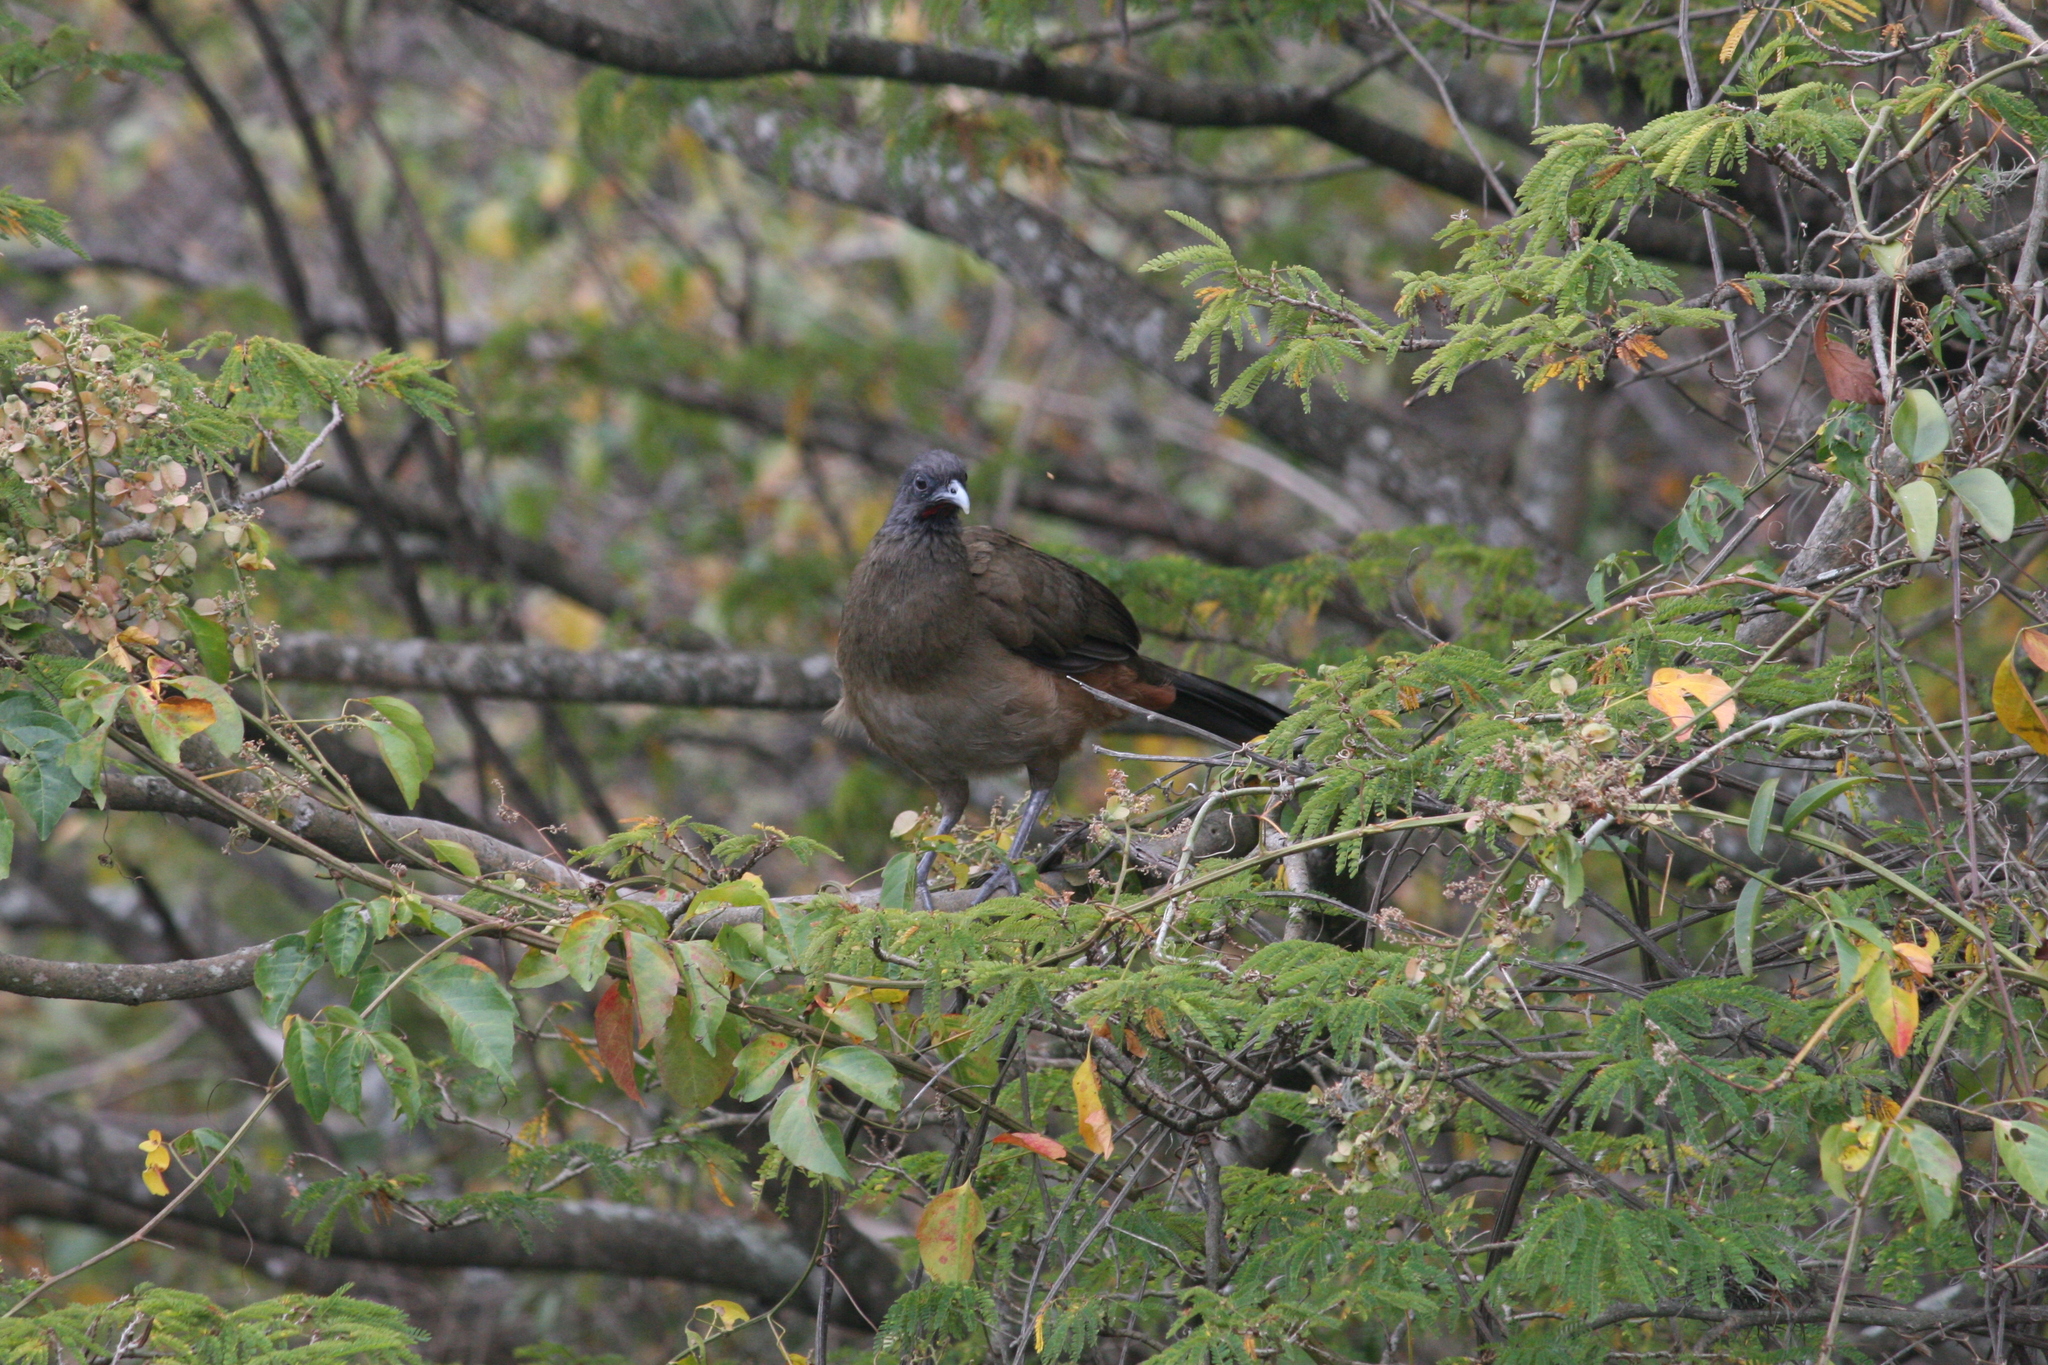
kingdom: Animalia
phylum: Chordata
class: Aves
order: Galliformes
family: Cracidae
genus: Ortalis
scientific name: Ortalis ruficauda
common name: Rufous-vented chachalaca
